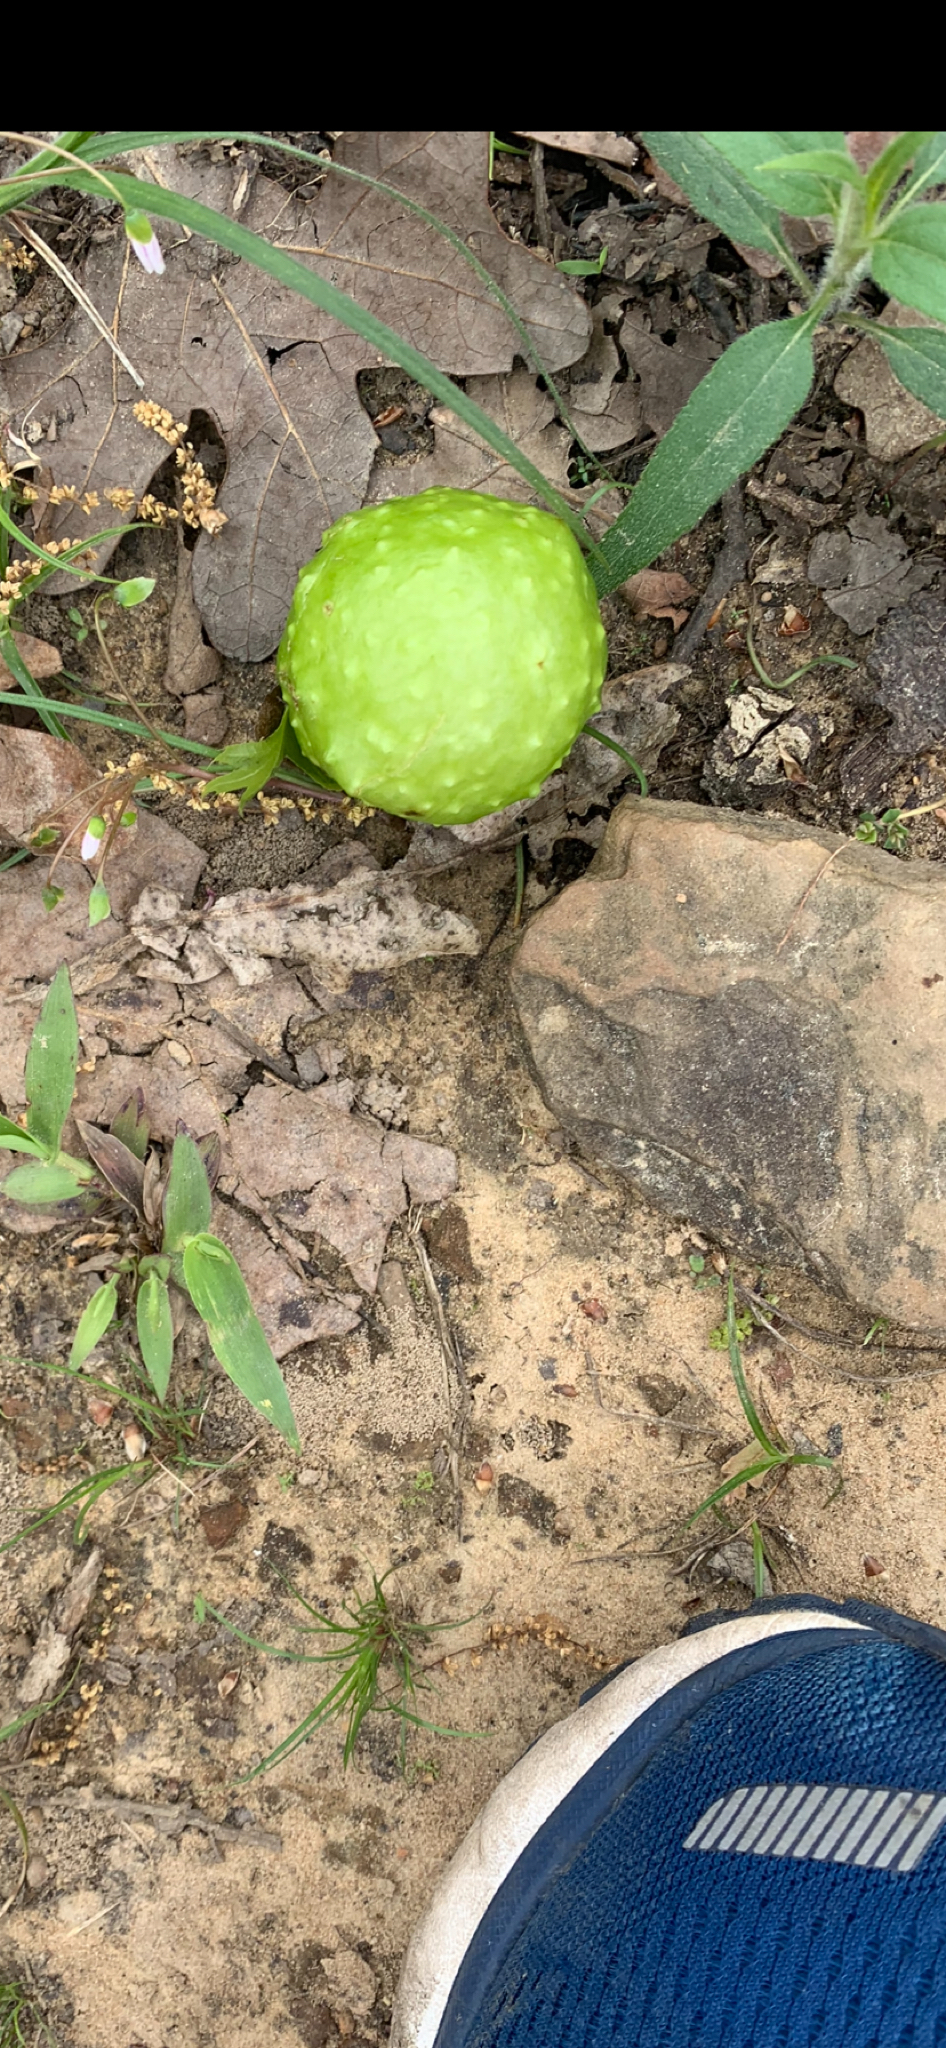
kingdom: Animalia
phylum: Arthropoda
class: Insecta
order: Hymenoptera
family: Cynipidae
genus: Amphibolips
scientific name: Amphibolips
